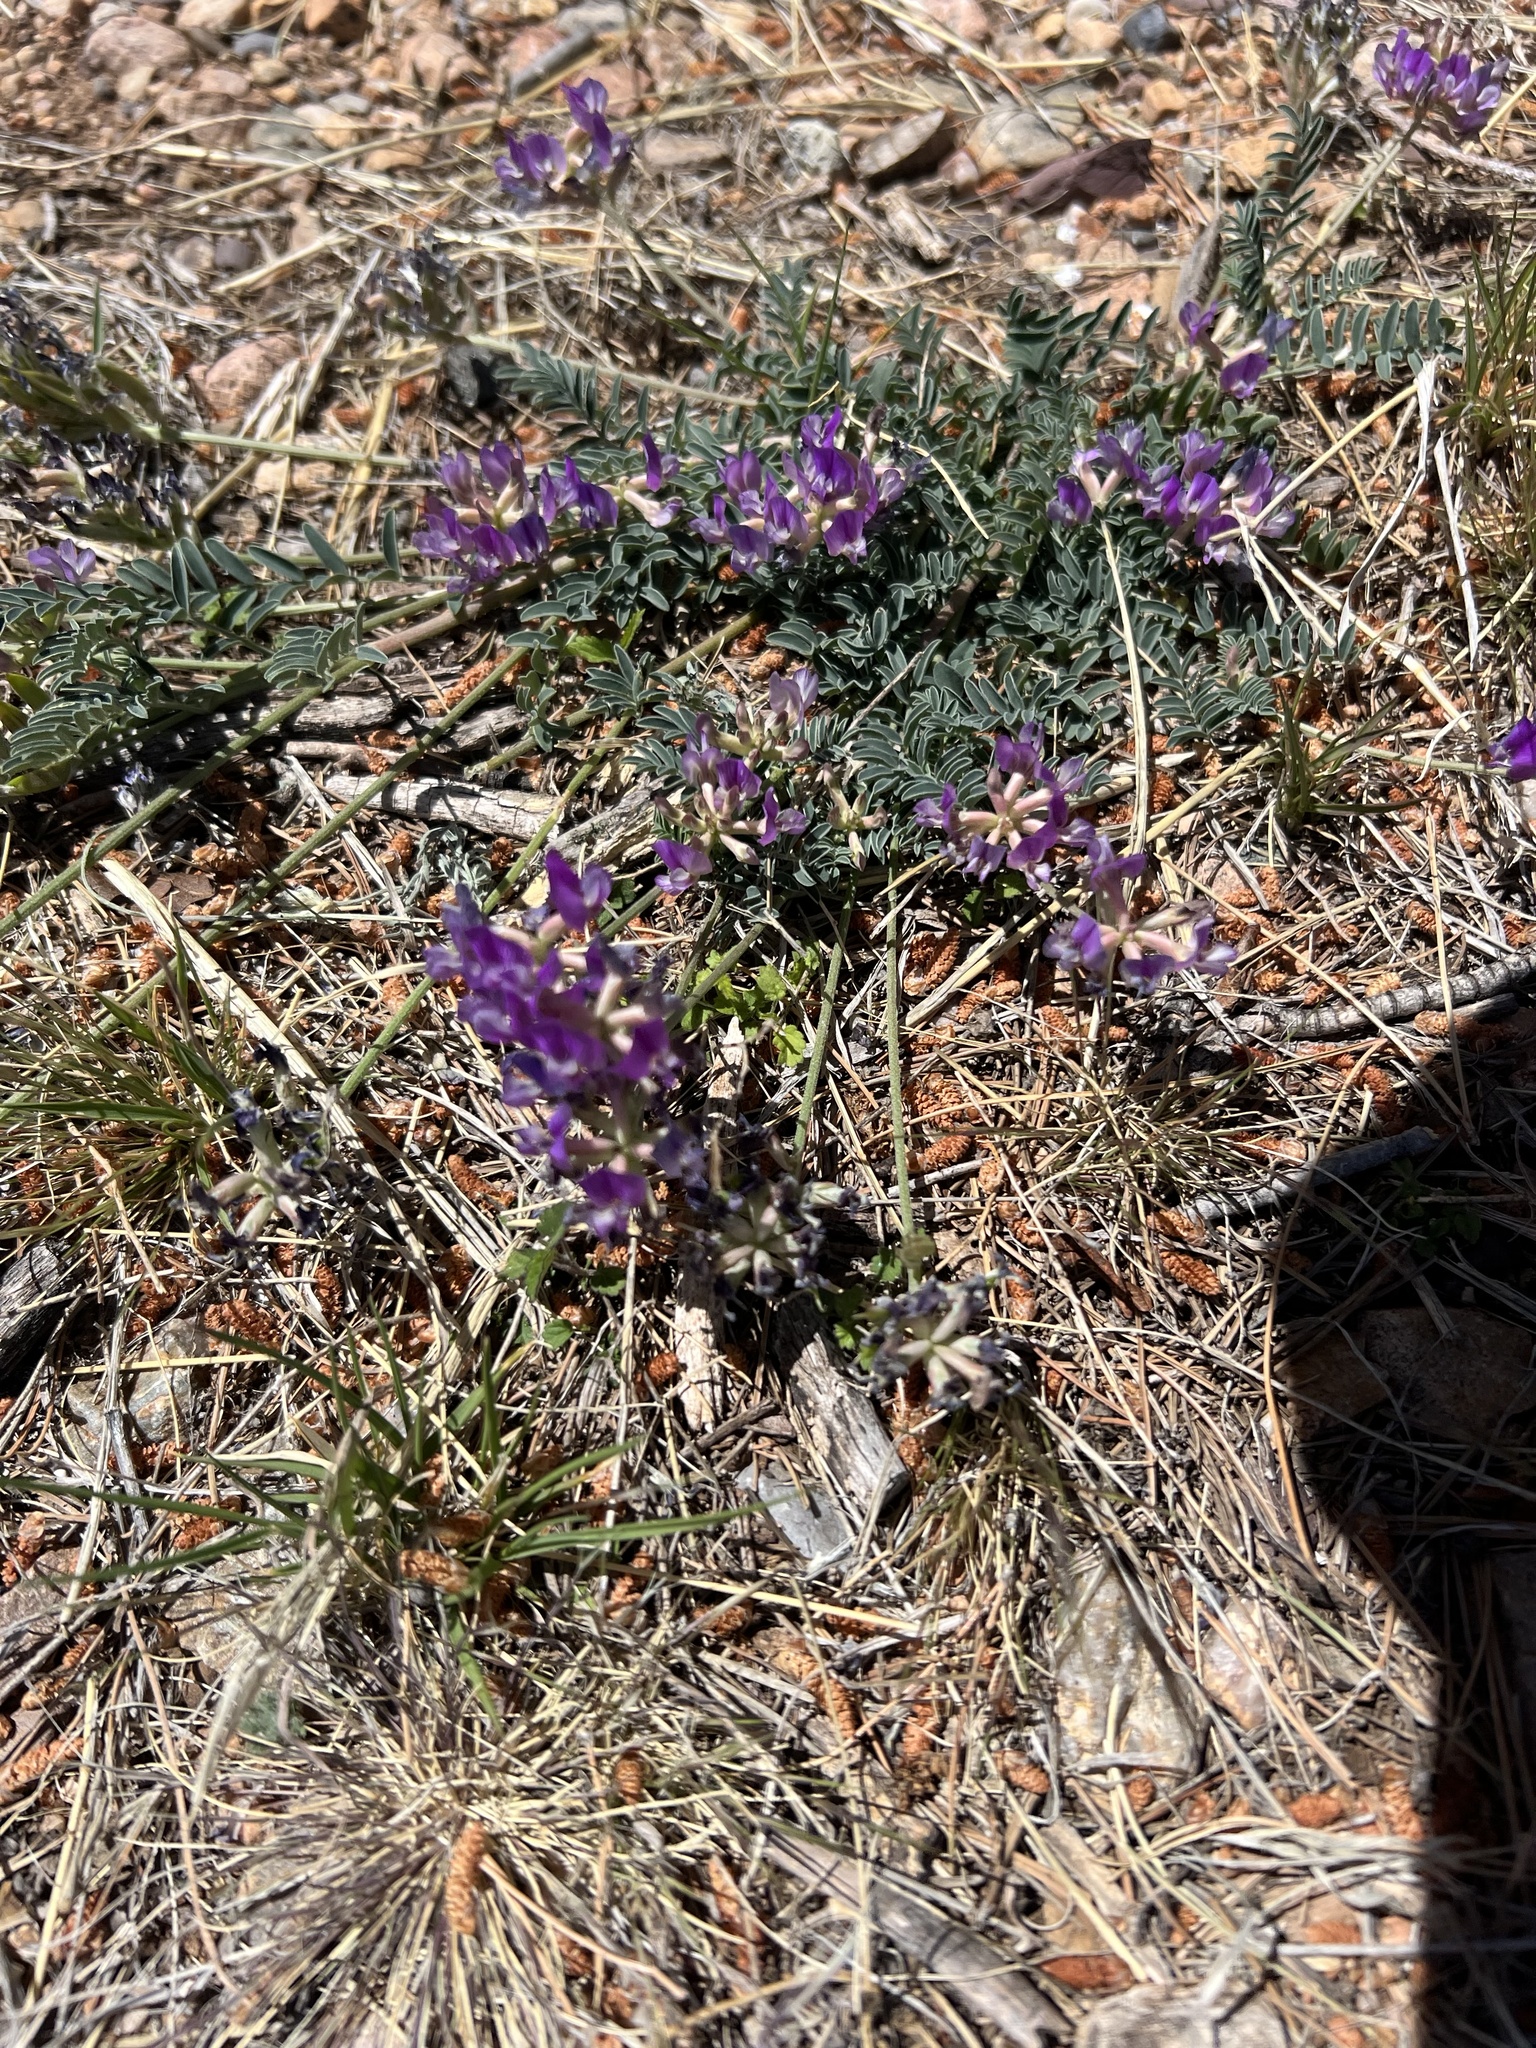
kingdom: Plantae
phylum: Tracheophyta
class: Magnoliopsida
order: Fabales
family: Fabaceae
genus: Astragalus
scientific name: Astragalus nothoxys
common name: Beaked milk-vetch
